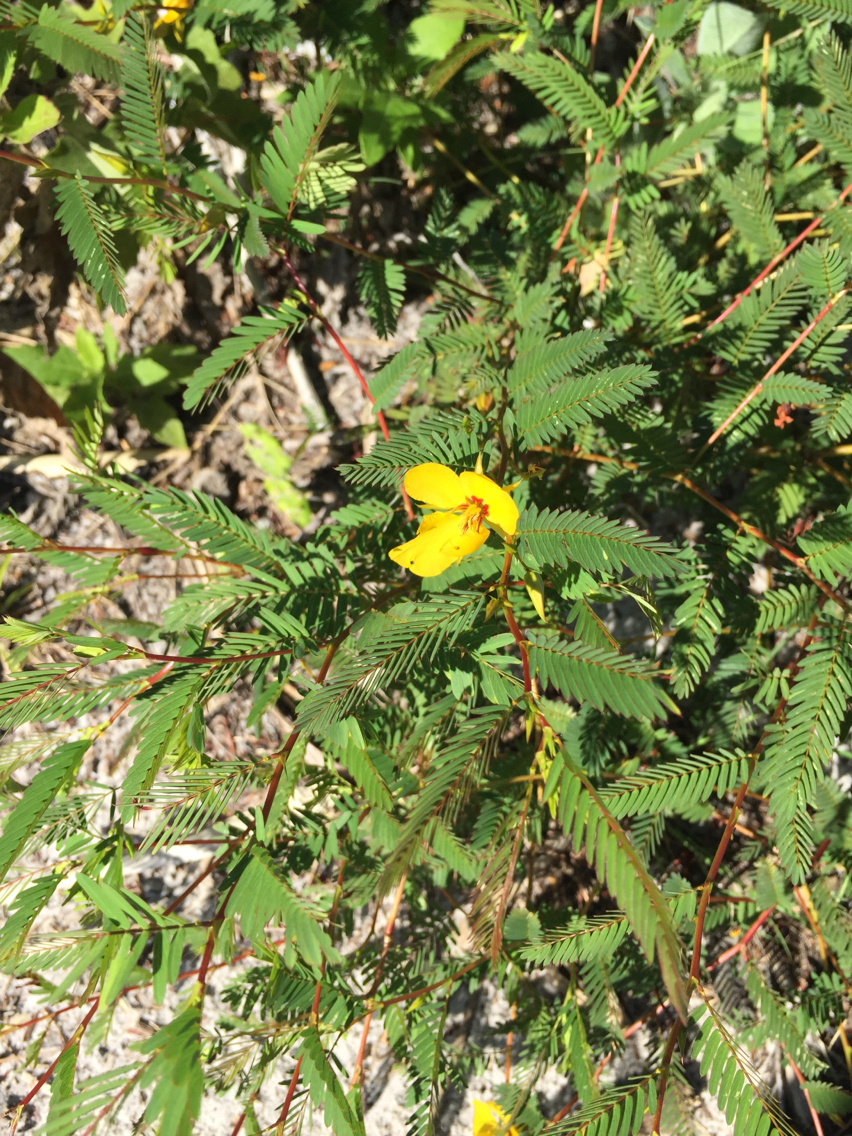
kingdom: Plantae
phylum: Tracheophyta
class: Magnoliopsida
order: Fabales
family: Fabaceae
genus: Chamaecrista
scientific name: Chamaecrista fasciculata
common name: Golden cassia
